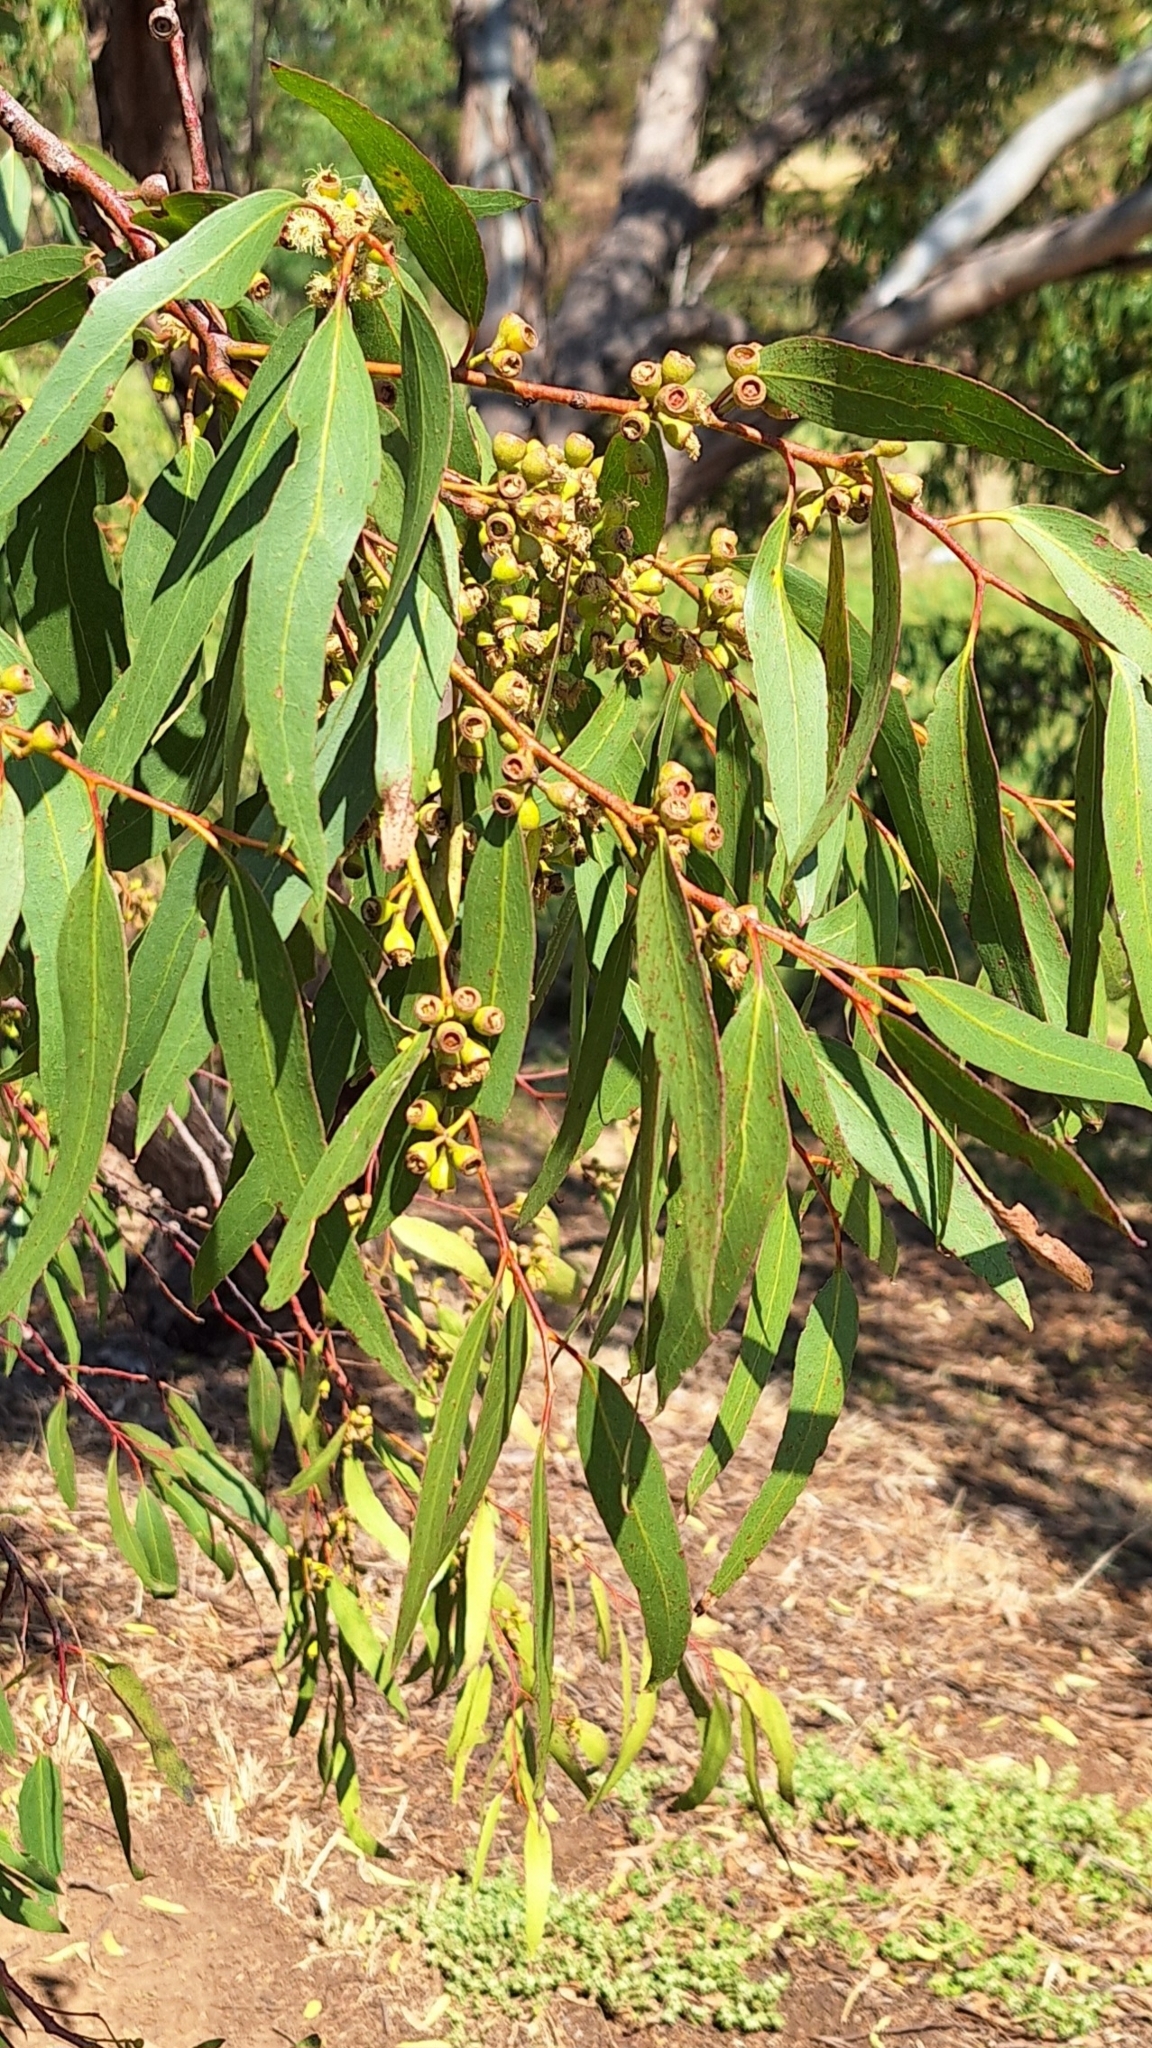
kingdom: Plantae
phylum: Tracheophyta
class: Magnoliopsida
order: Myrtales
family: Myrtaceae
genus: Eucalyptus
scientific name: Eucalyptus porosa
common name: Quorn mallee
